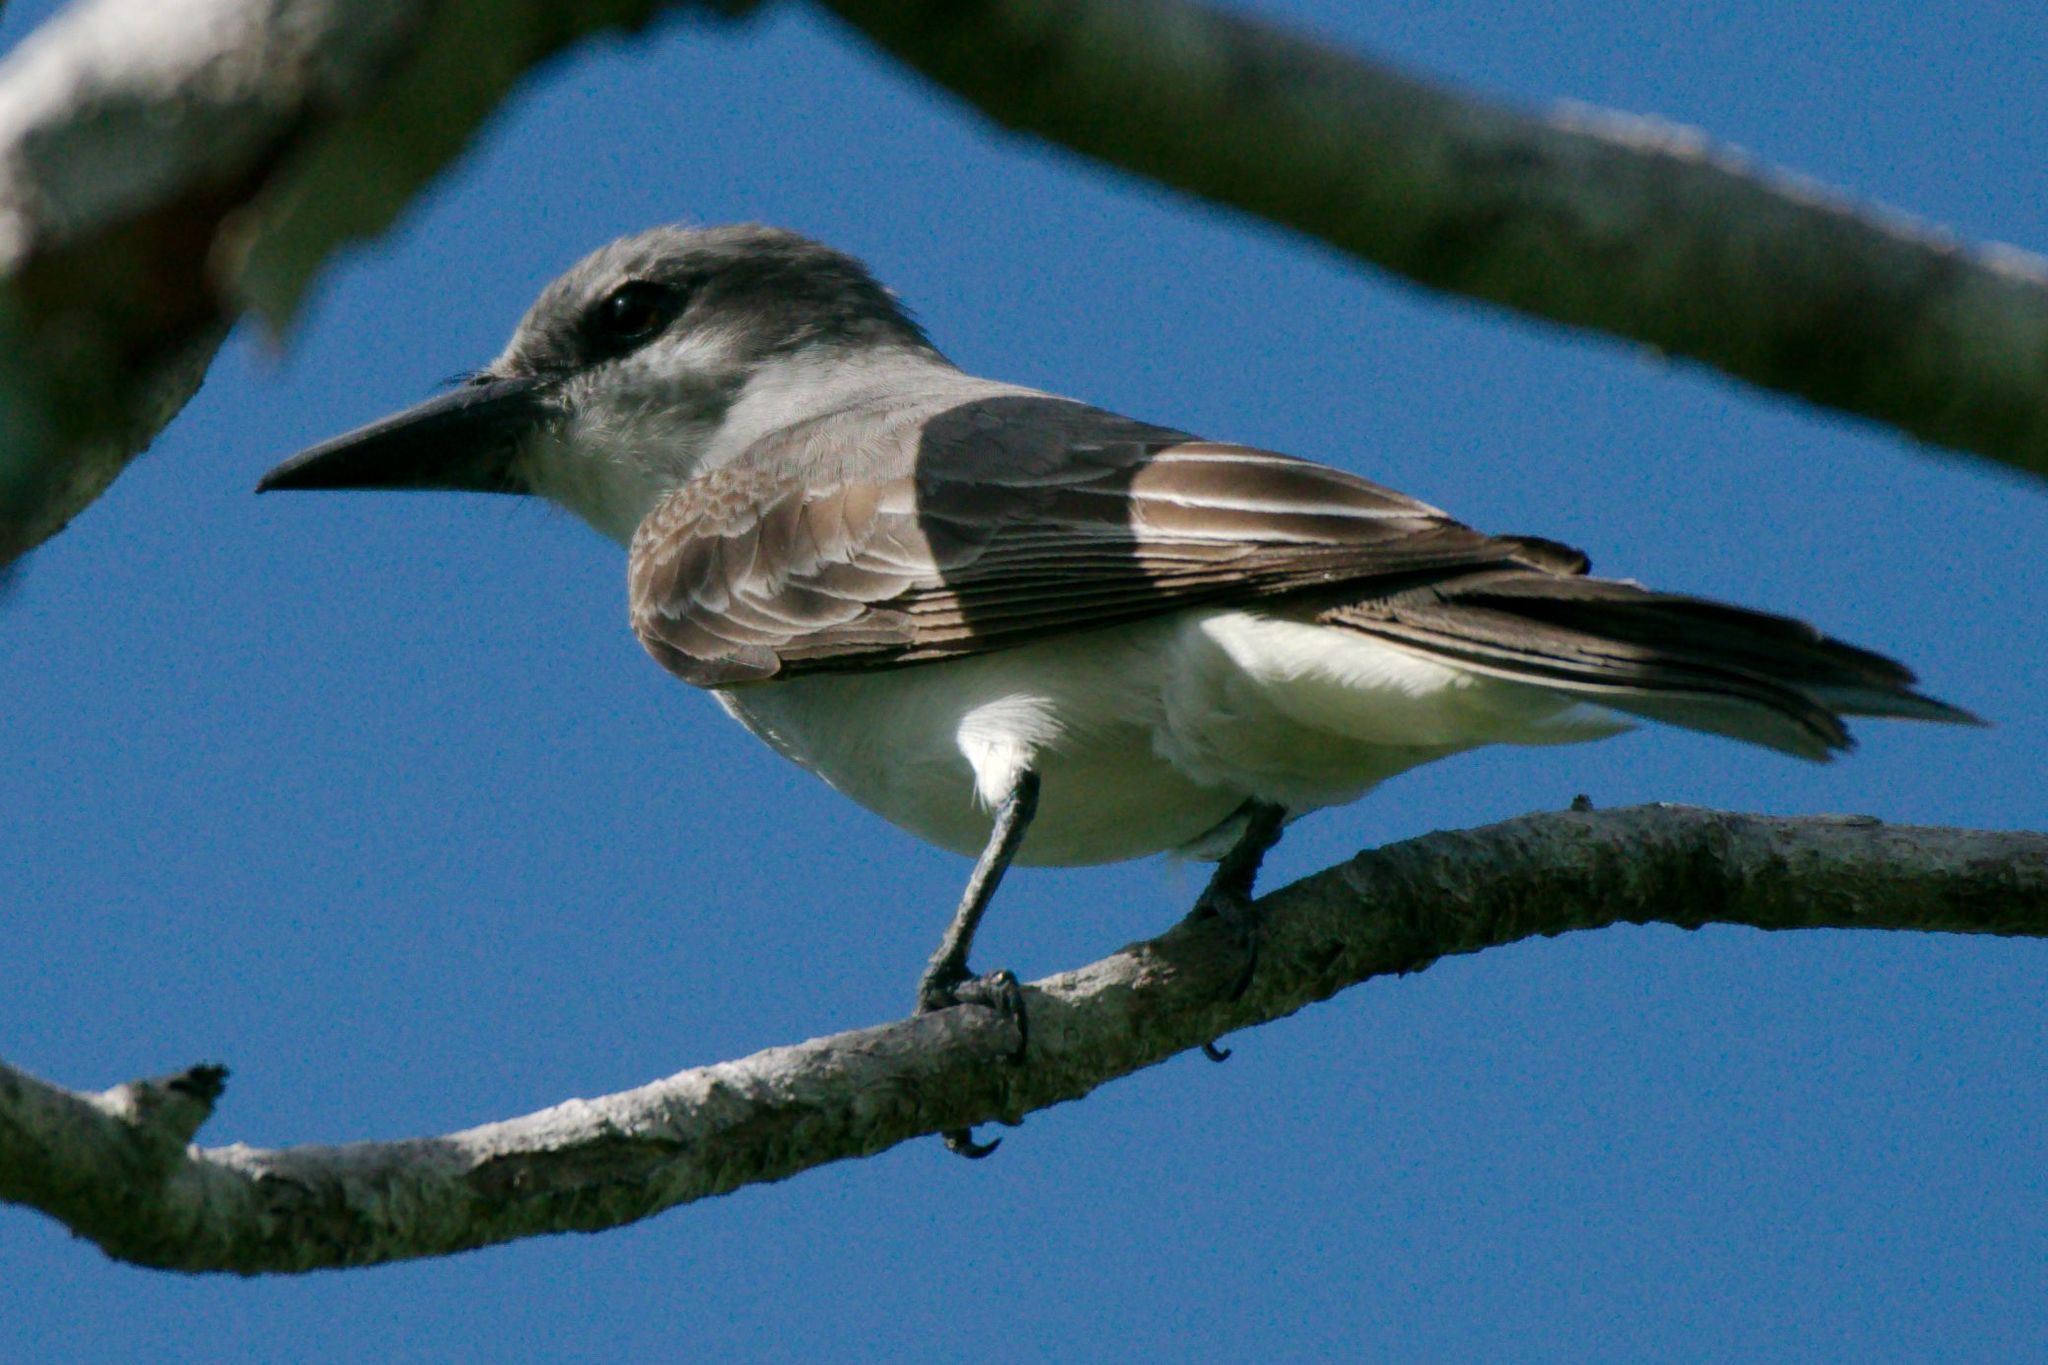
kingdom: Animalia
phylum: Chordata
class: Aves
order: Passeriformes
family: Tyrannidae
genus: Tyrannus
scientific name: Tyrannus dominicensis
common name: Gray kingbird
